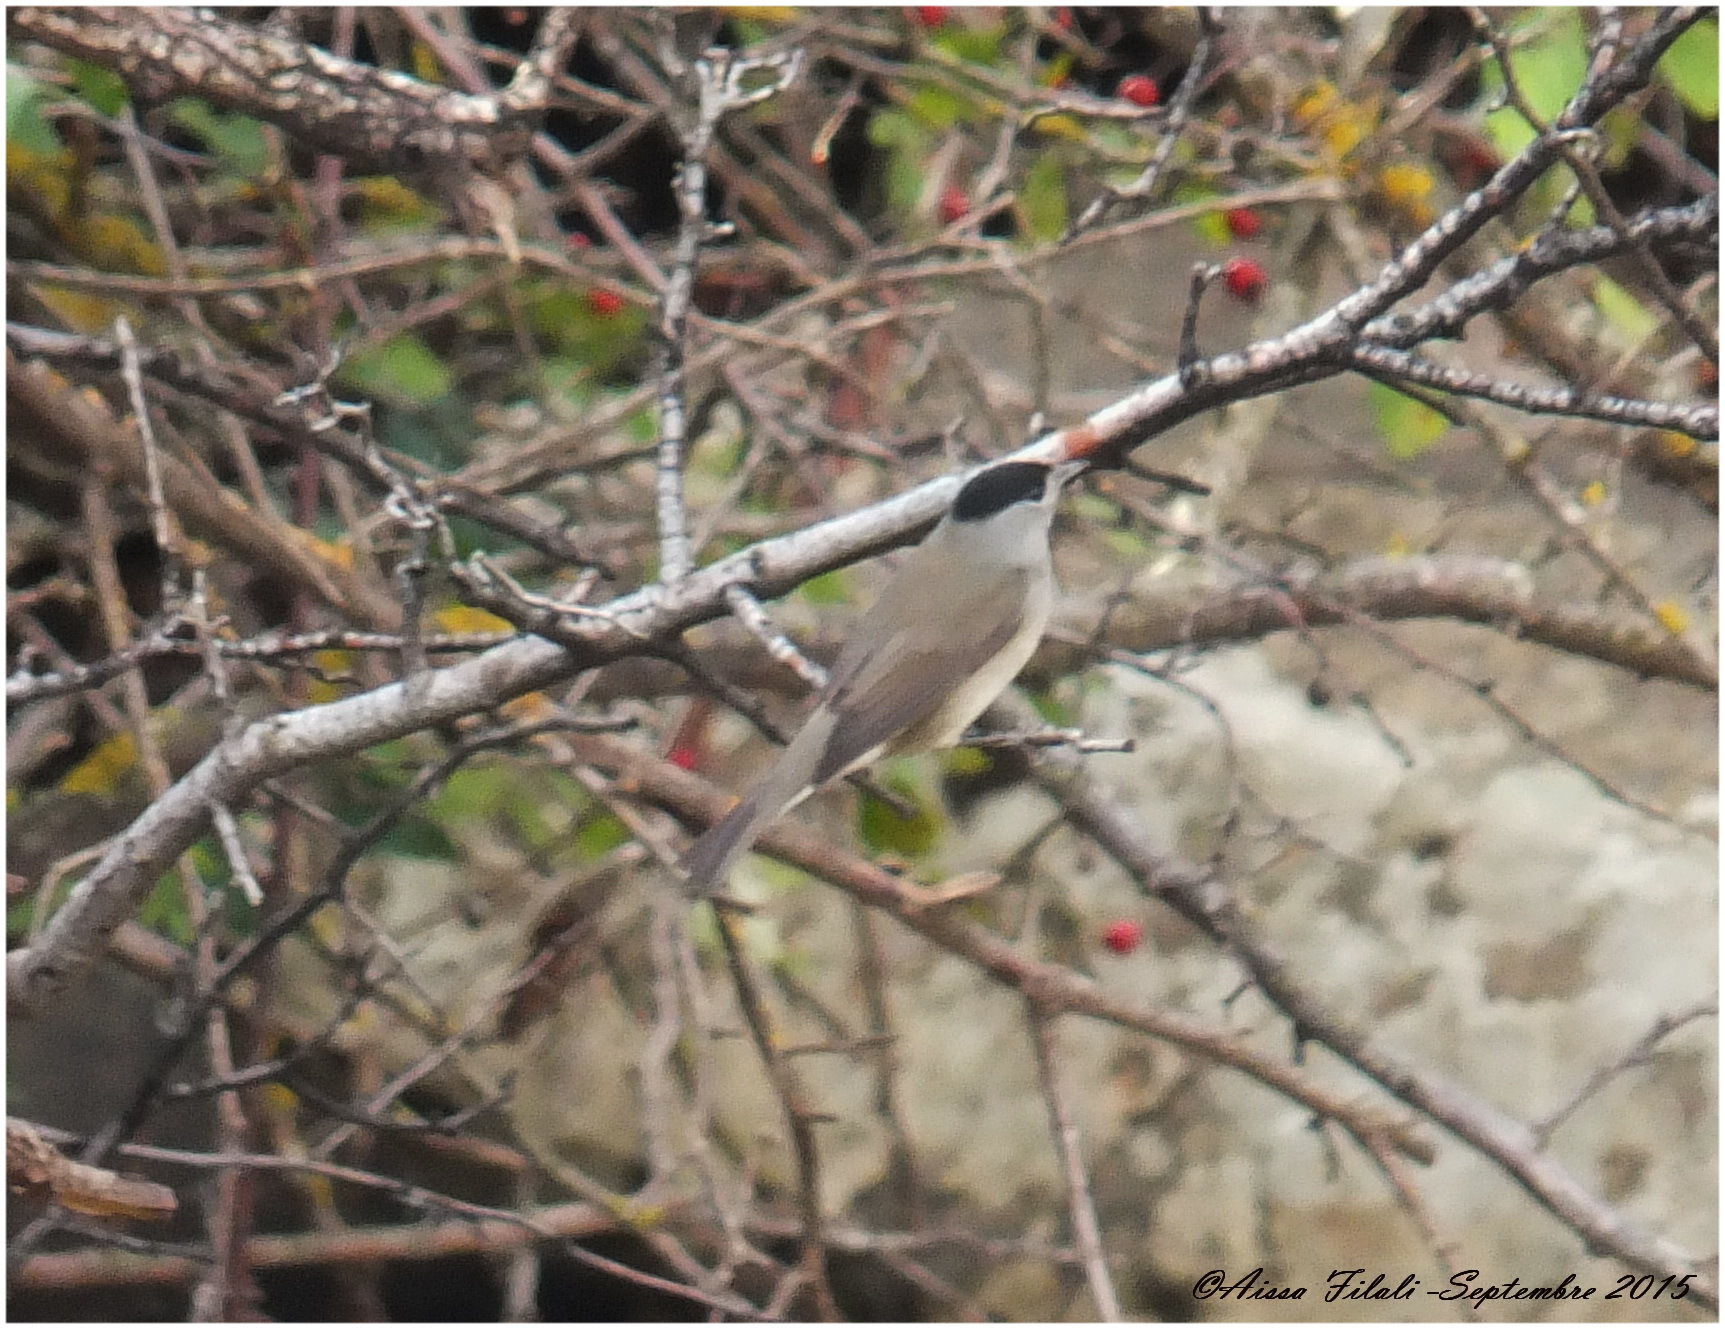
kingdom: Animalia
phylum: Chordata
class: Aves
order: Passeriformes
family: Sylviidae
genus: Sylvia
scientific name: Sylvia atricapilla
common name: Eurasian blackcap
